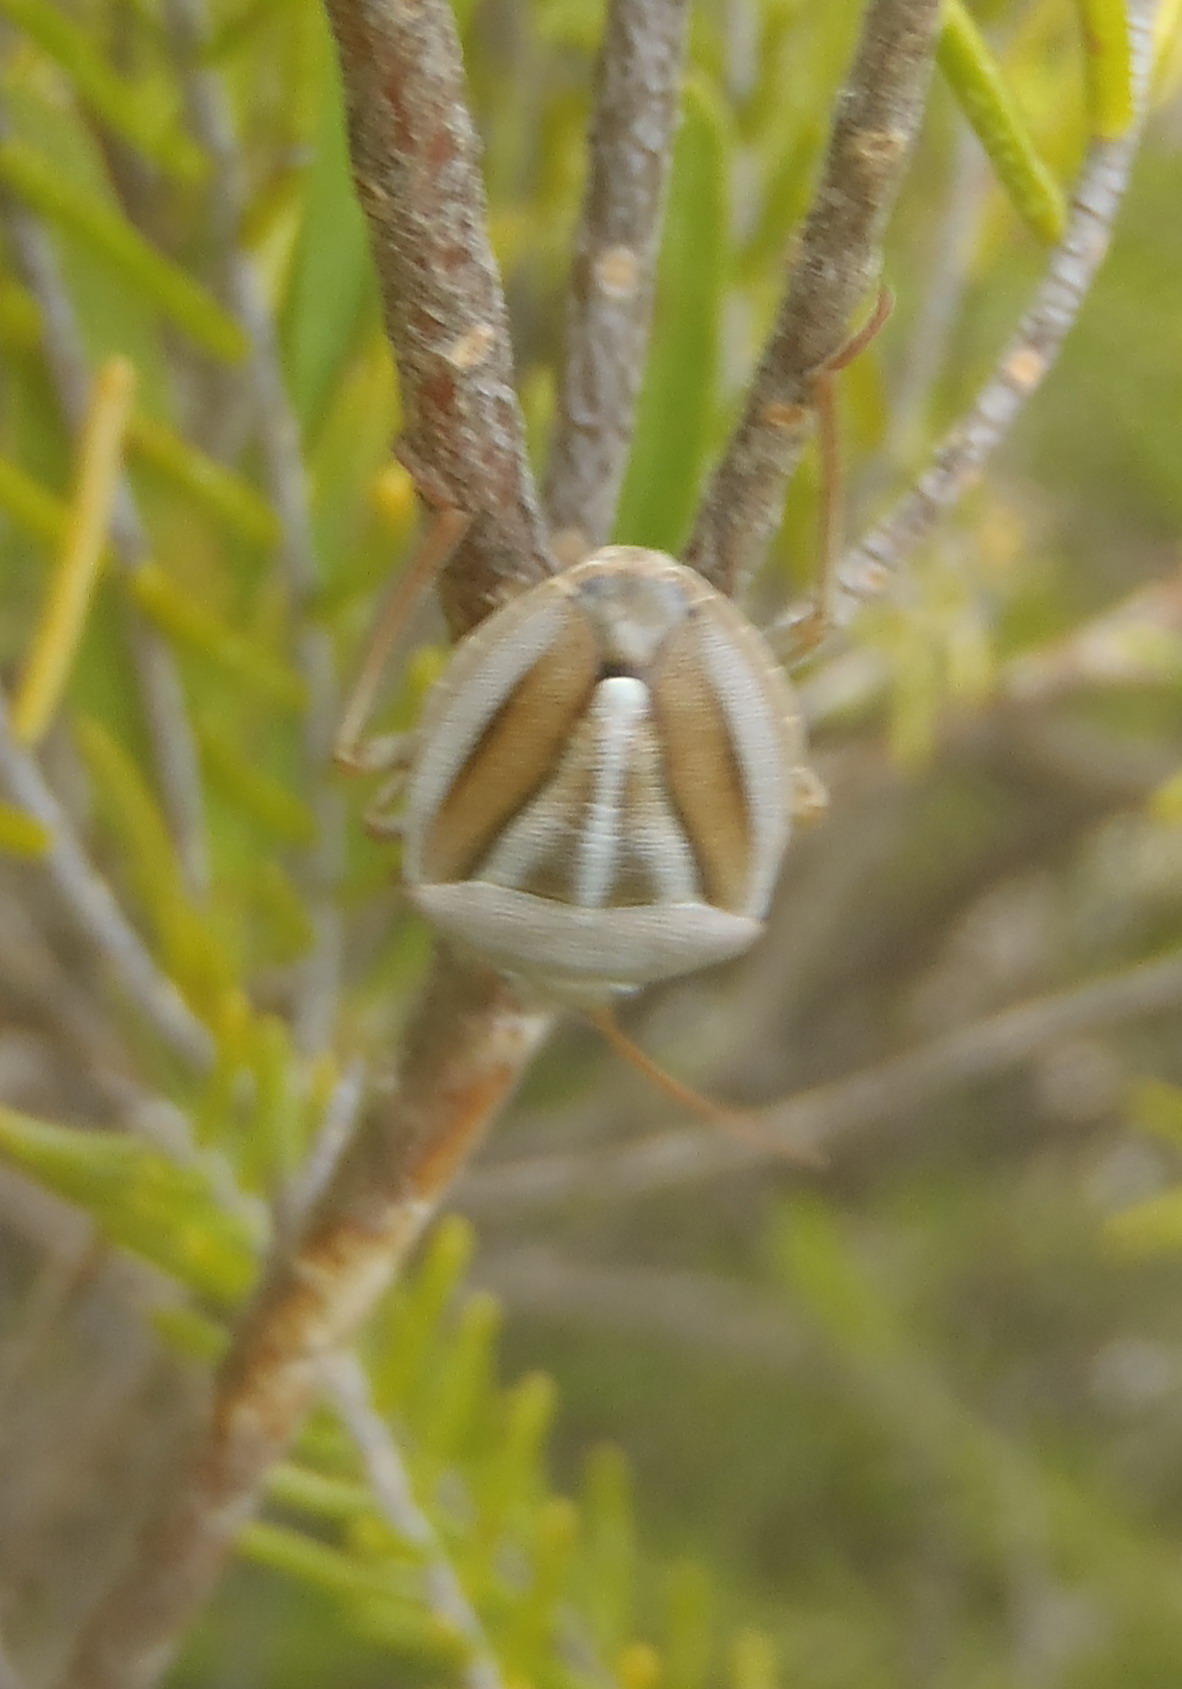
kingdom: Animalia
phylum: Arthropoda
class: Insecta
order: Hemiptera
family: Pentatomidae
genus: Theloris
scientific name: Theloris costata
